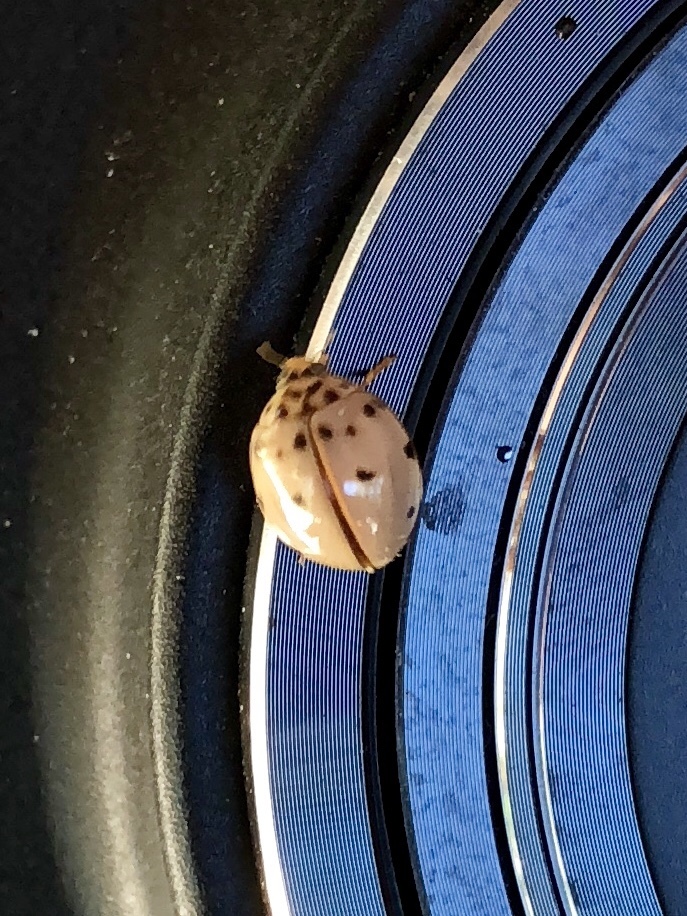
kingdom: Animalia
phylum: Arthropoda
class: Insecta
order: Coleoptera
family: Coccinellidae
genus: Olla
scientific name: Olla v-nigrum
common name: Ashy gray lady beetle
